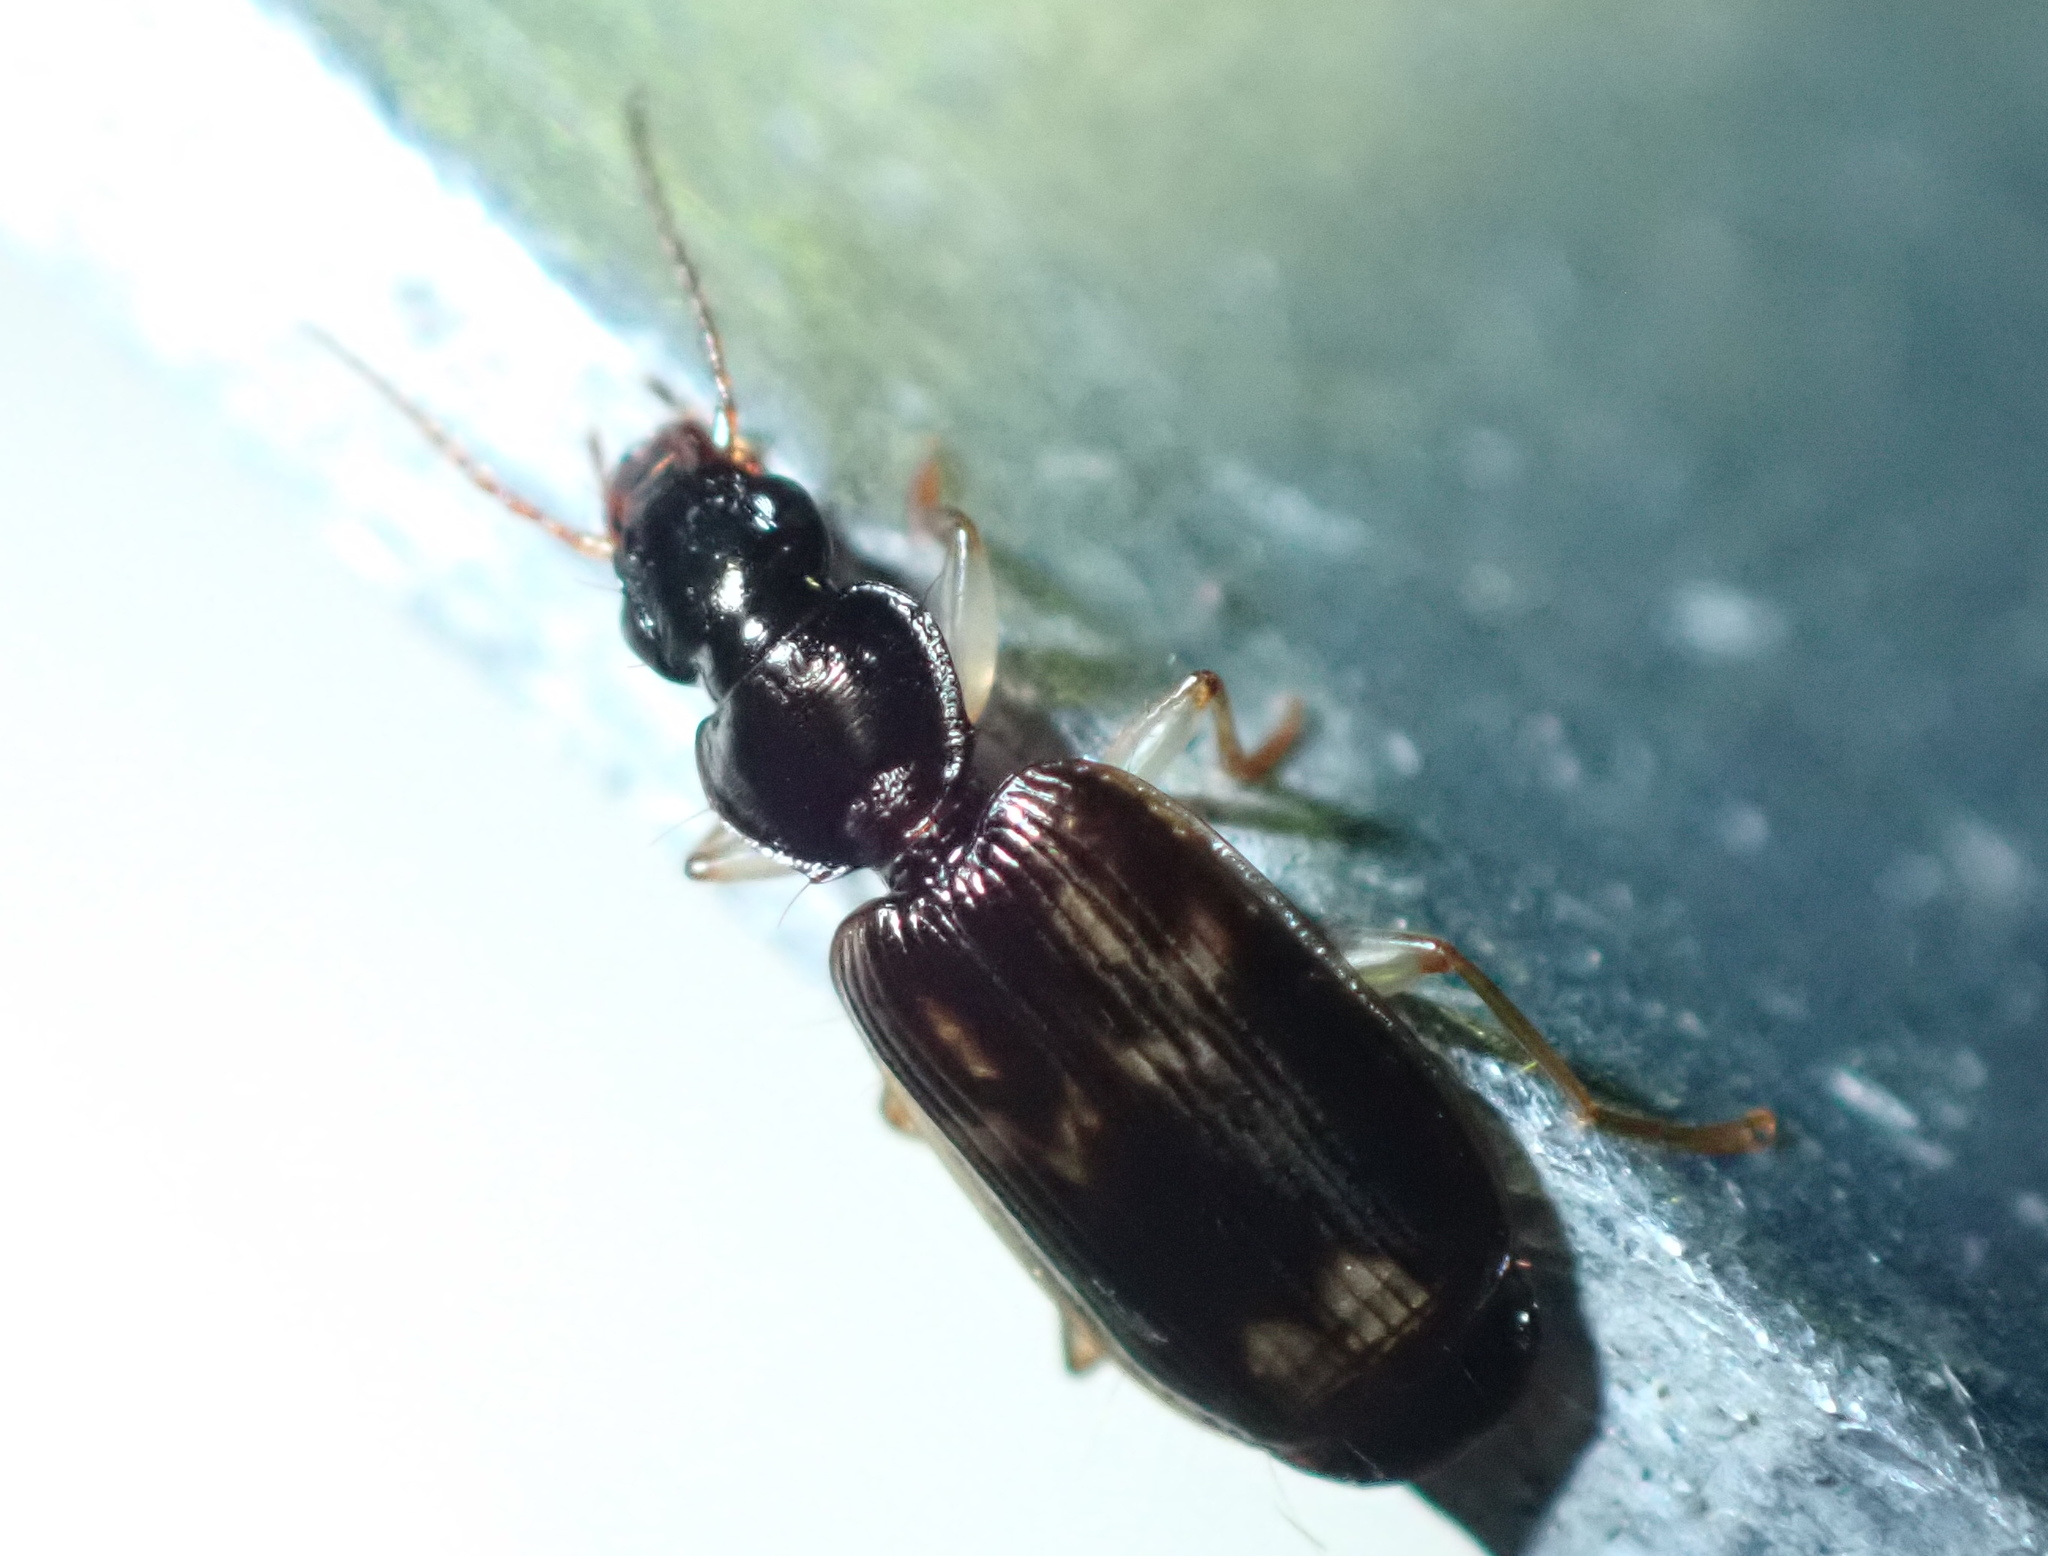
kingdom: Animalia
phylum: Arthropoda
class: Insecta
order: Coleoptera
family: Carabidae
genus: Anomotarus
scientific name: Anomotarus variegatus
